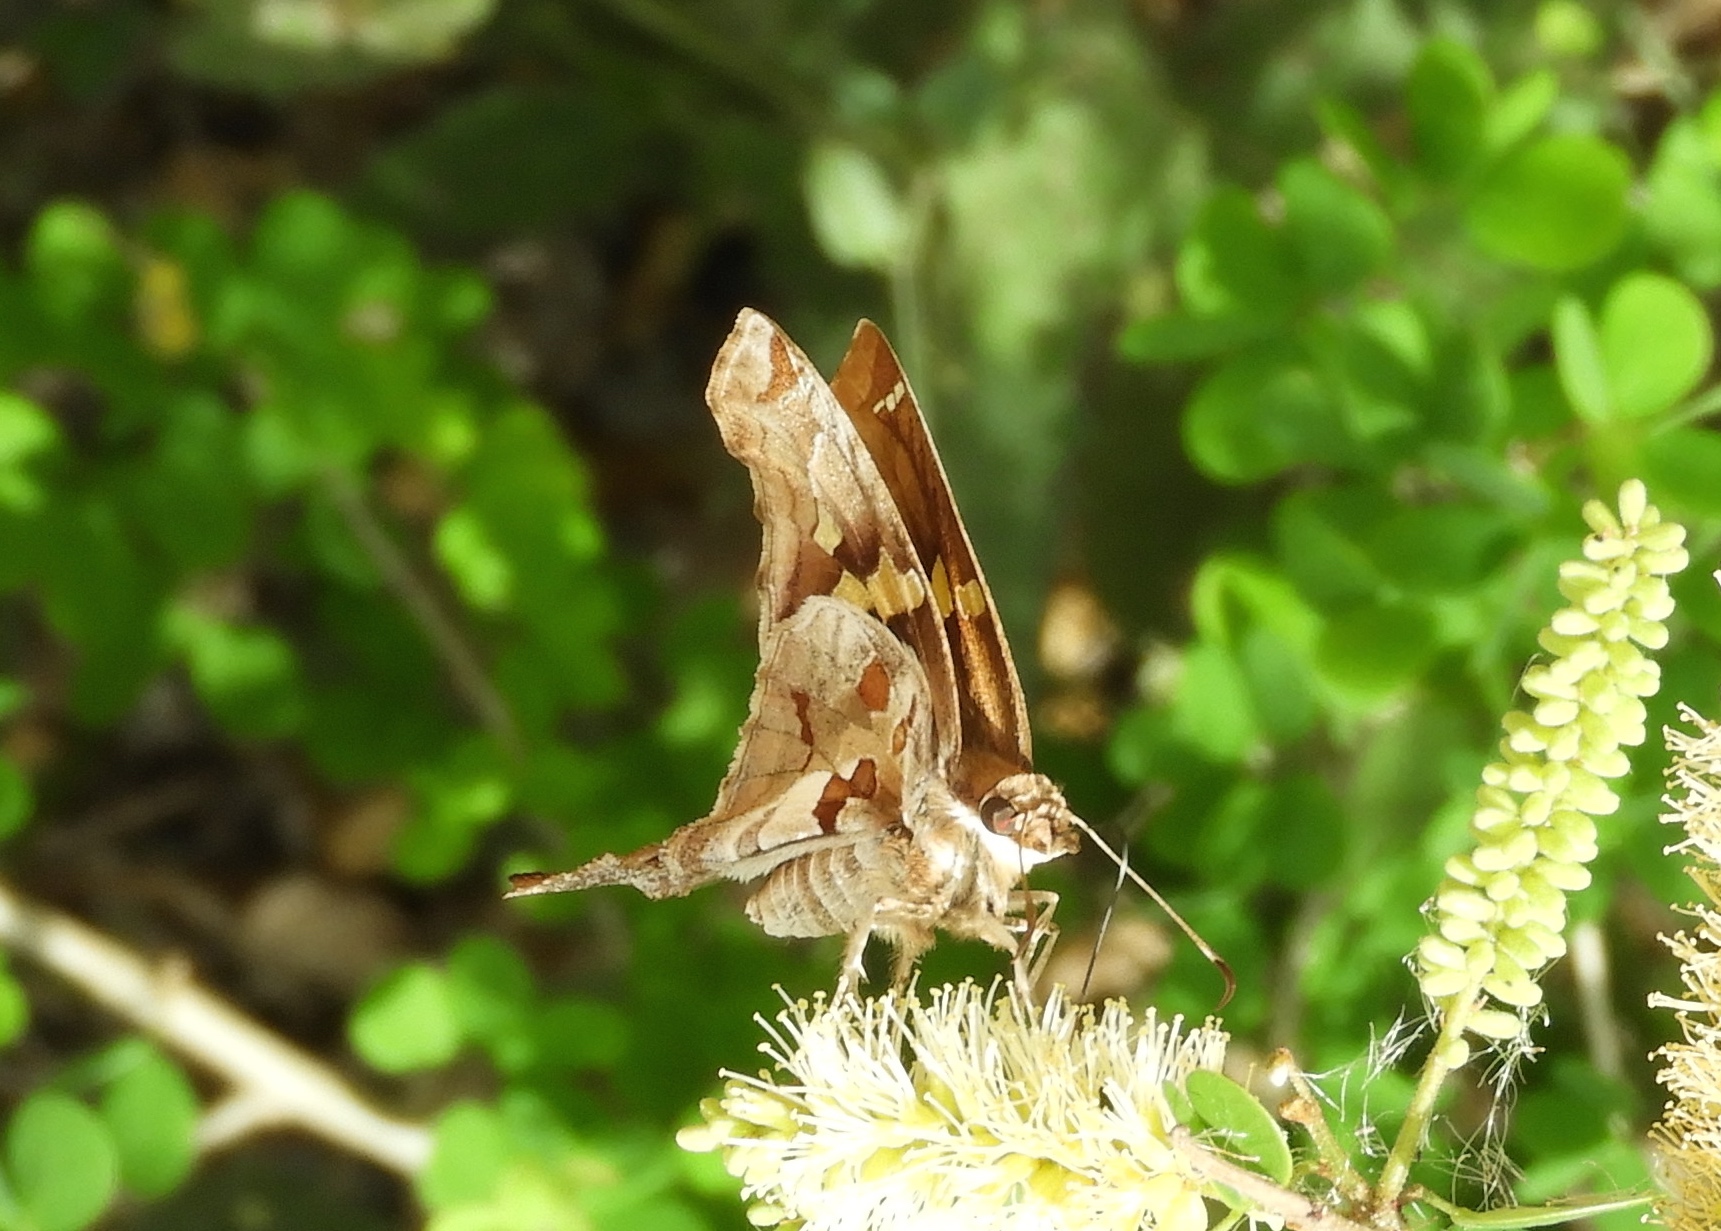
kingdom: Animalia
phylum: Arthropoda
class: Insecta
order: Lepidoptera
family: Hesperiidae
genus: Chioides
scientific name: Chioides zilpa
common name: Zilpa longtail
